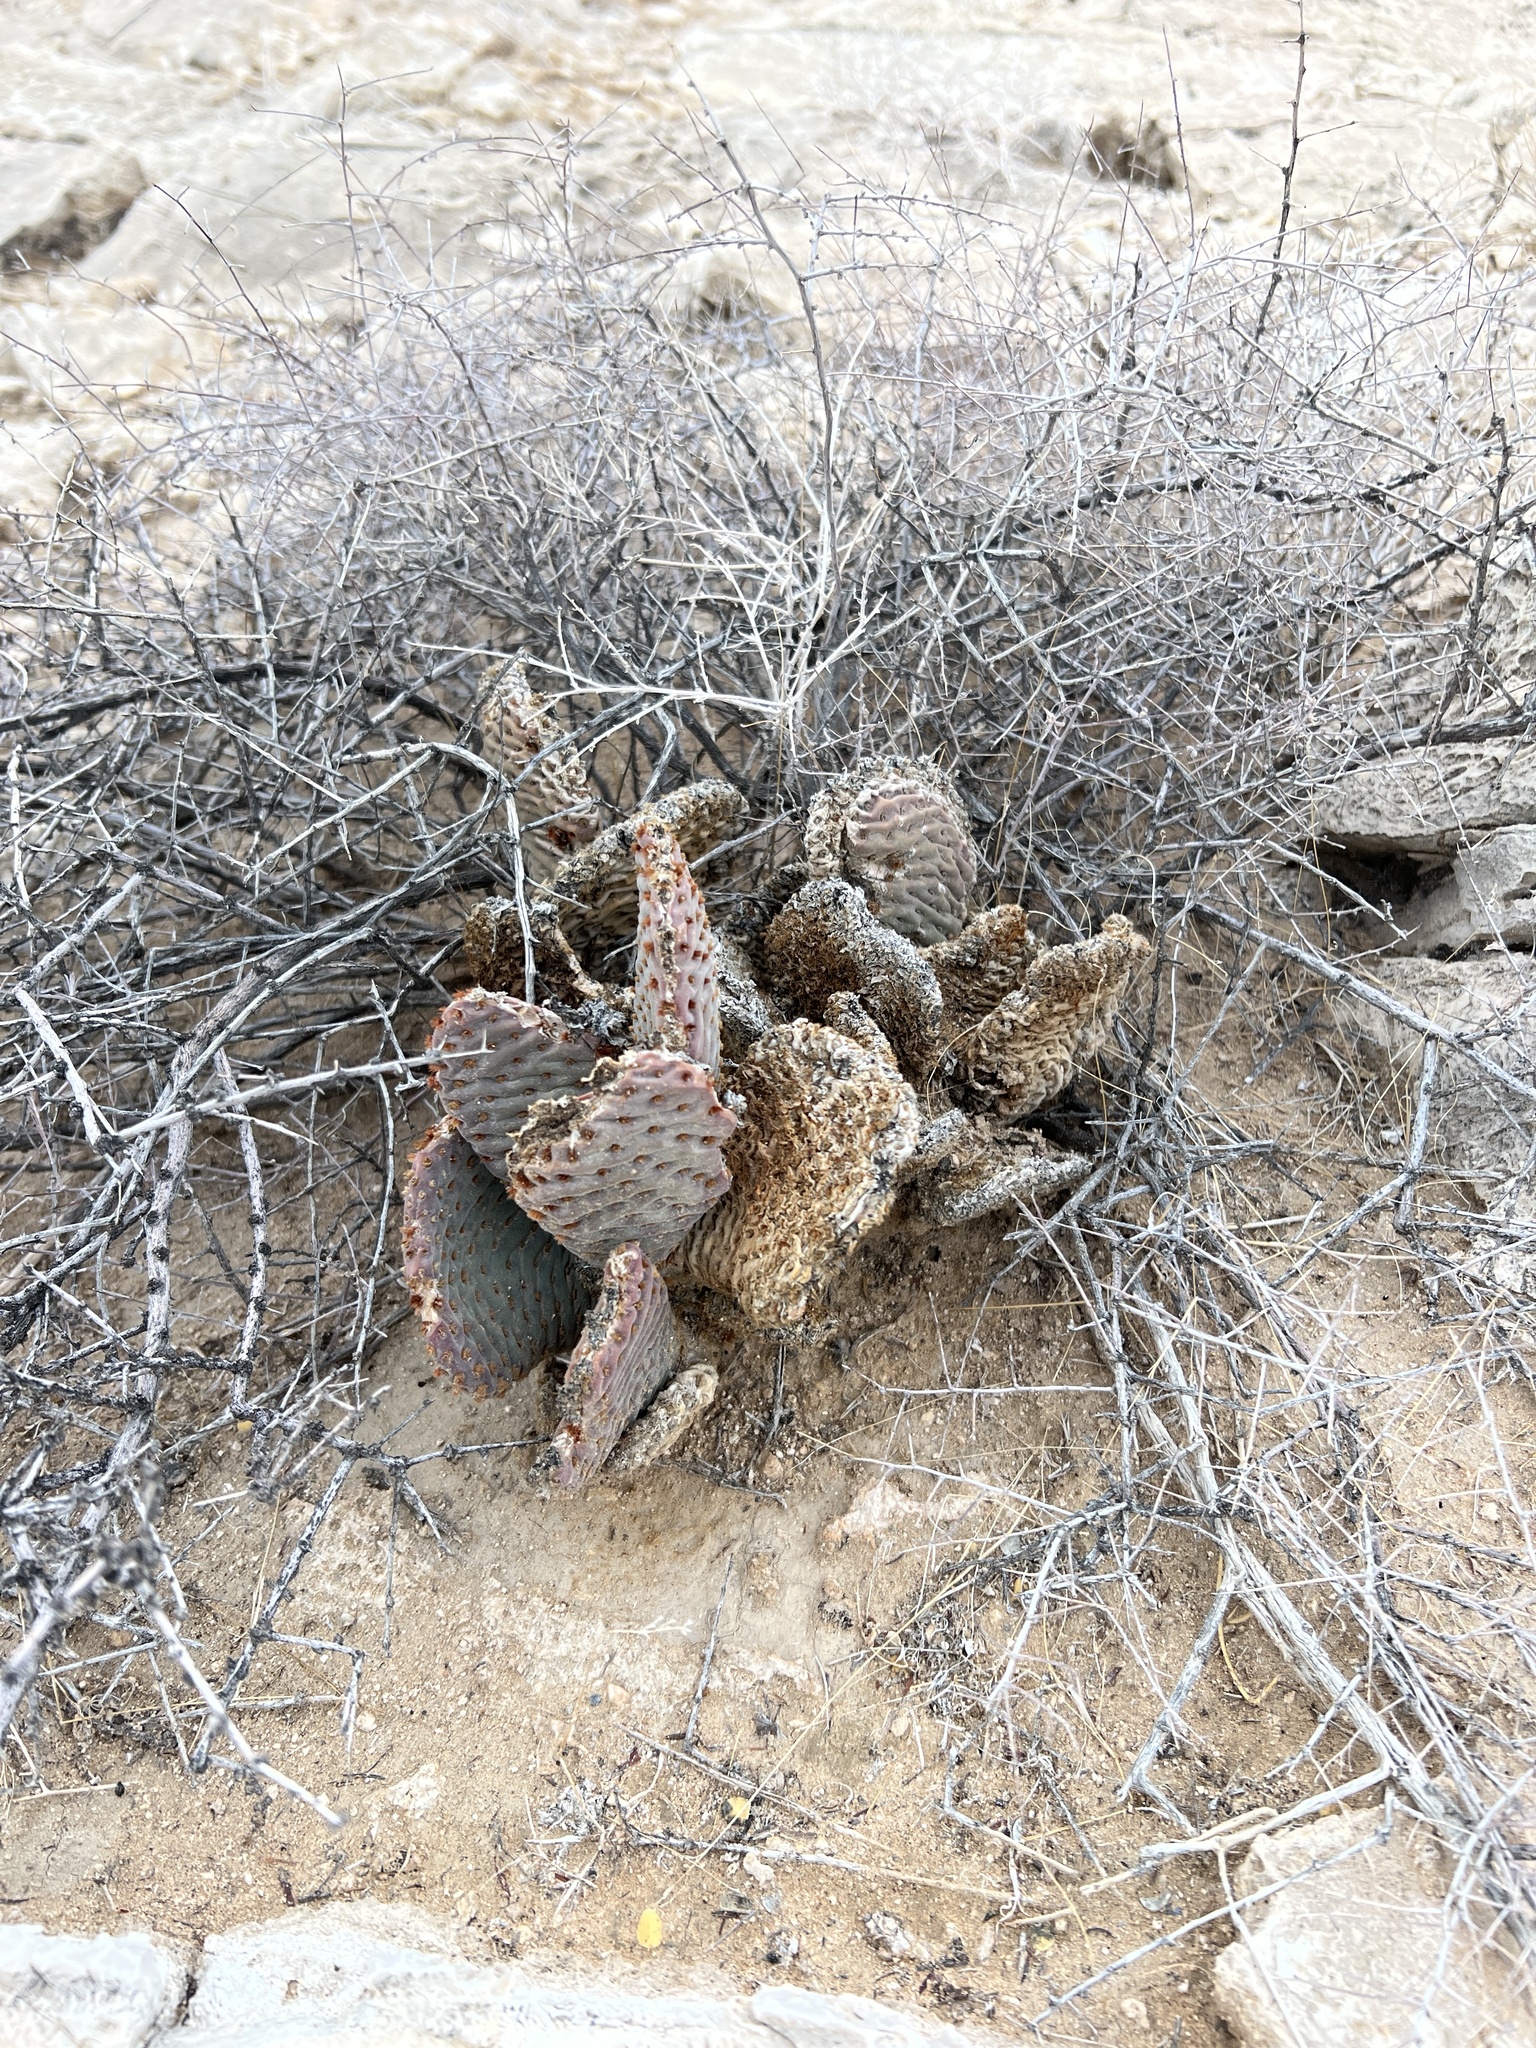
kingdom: Plantae
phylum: Tracheophyta
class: Magnoliopsida
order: Caryophyllales
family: Cactaceae
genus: Opuntia
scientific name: Opuntia basilaris
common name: Beavertail prickly-pear
